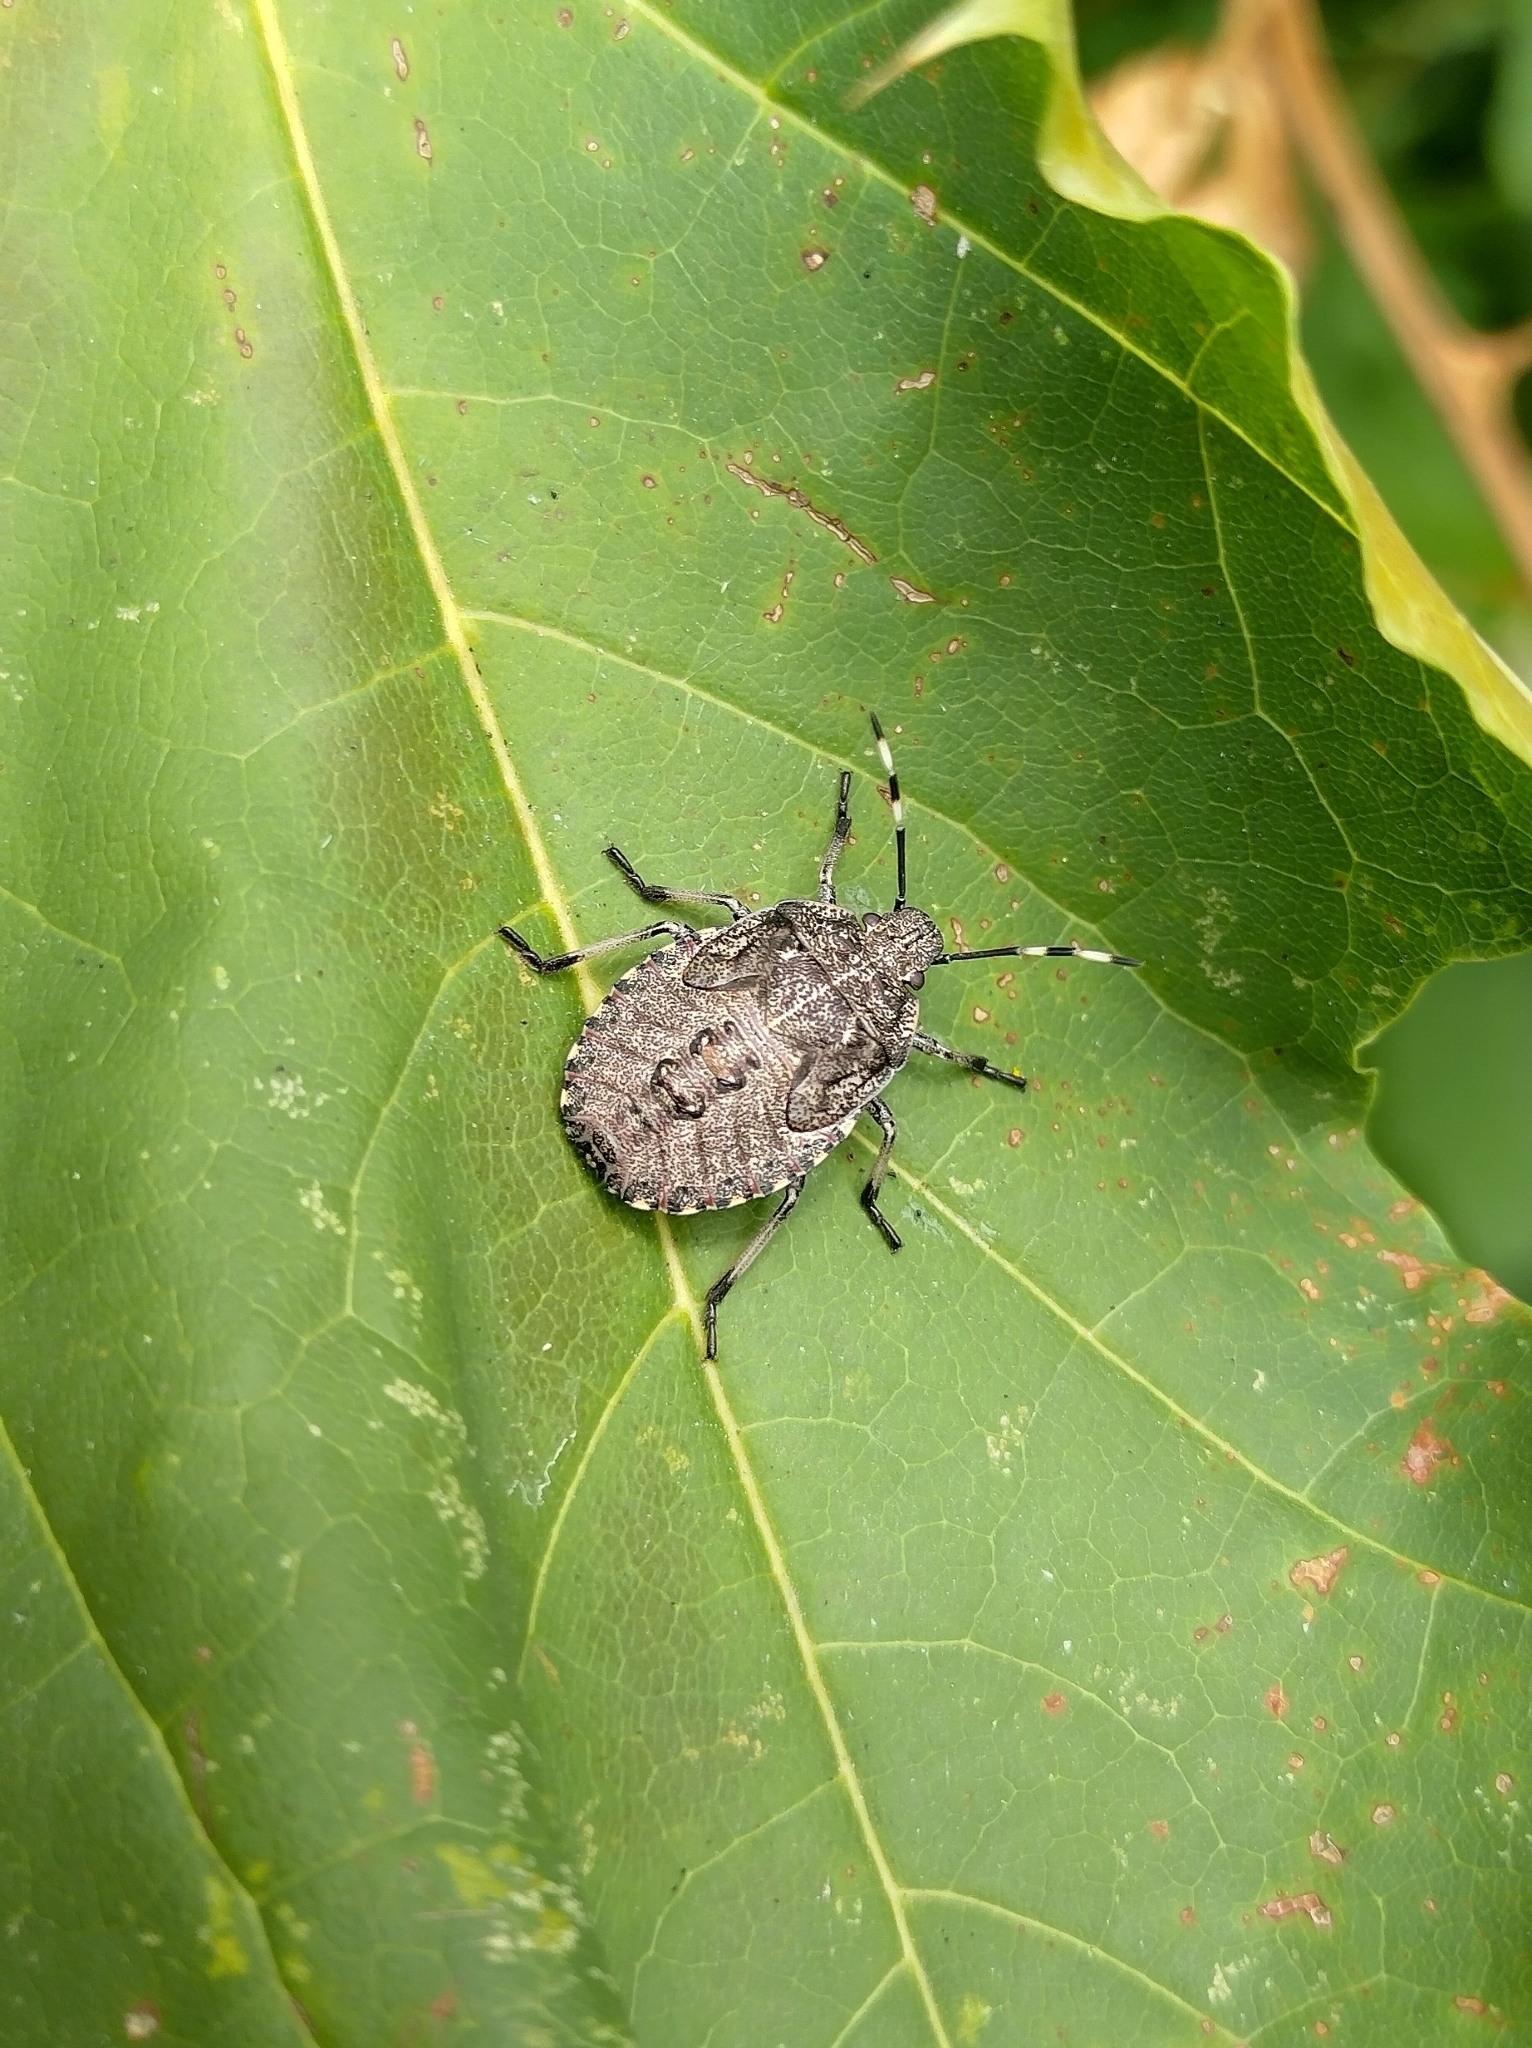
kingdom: Animalia
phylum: Arthropoda
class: Insecta
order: Hemiptera
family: Pentatomidae
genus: Rhaphigaster
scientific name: Rhaphigaster nebulosa
